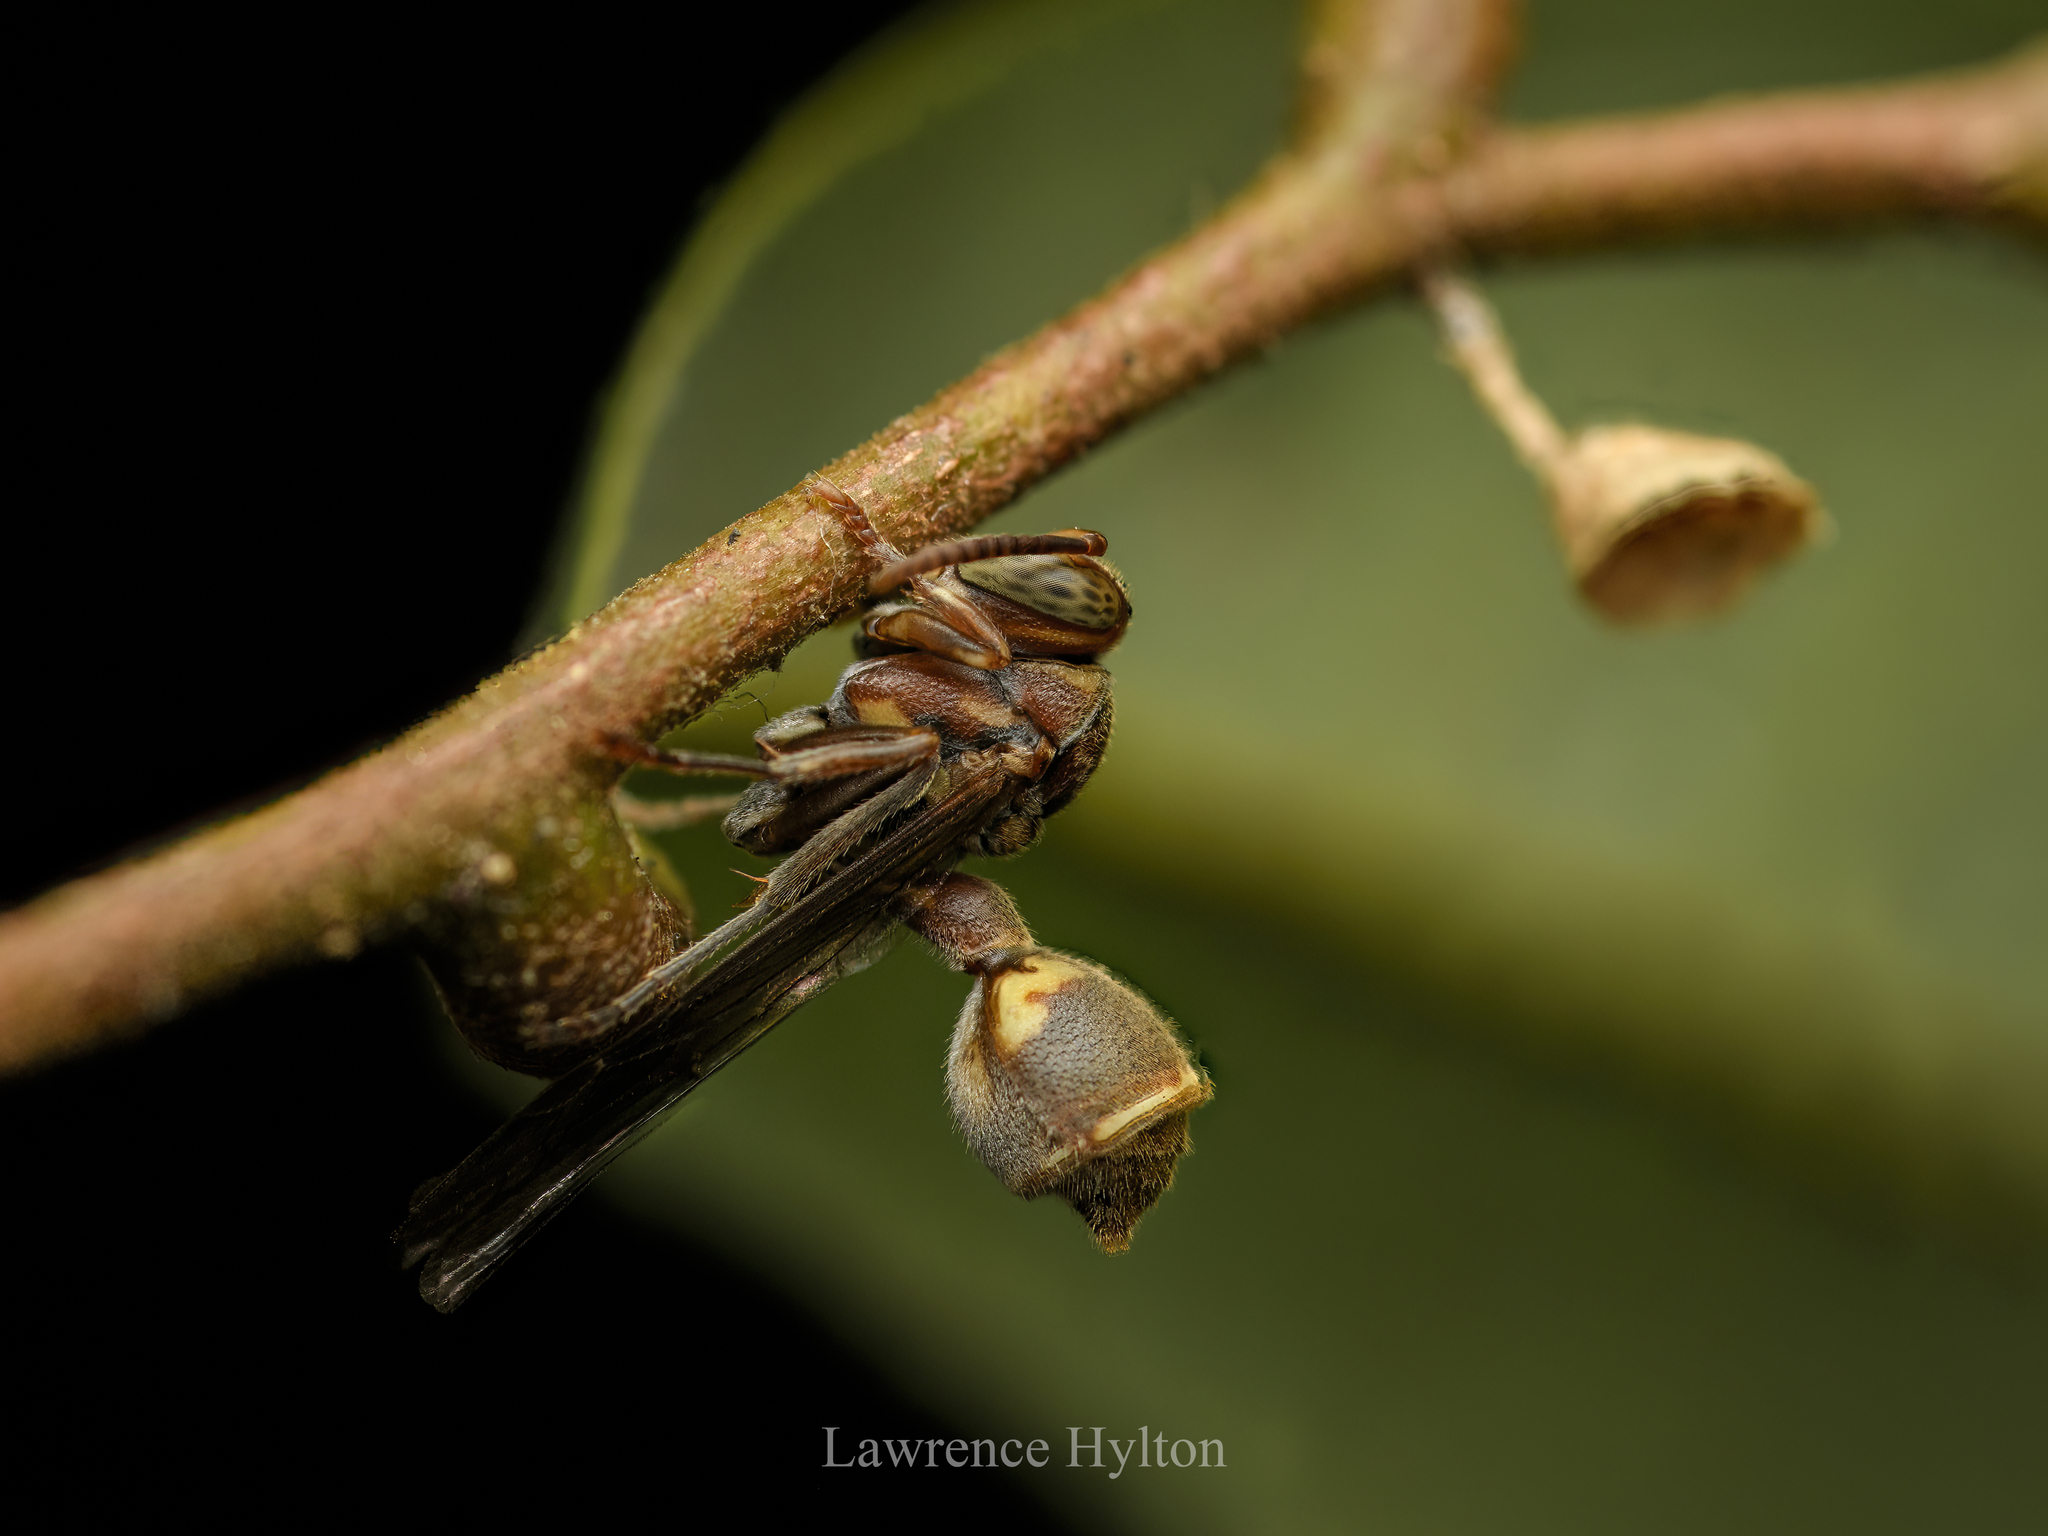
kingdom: Animalia
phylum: Arthropoda
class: Insecta
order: Hymenoptera
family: Vespidae
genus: Ropalidia
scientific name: Ropalidia hongkongensis
